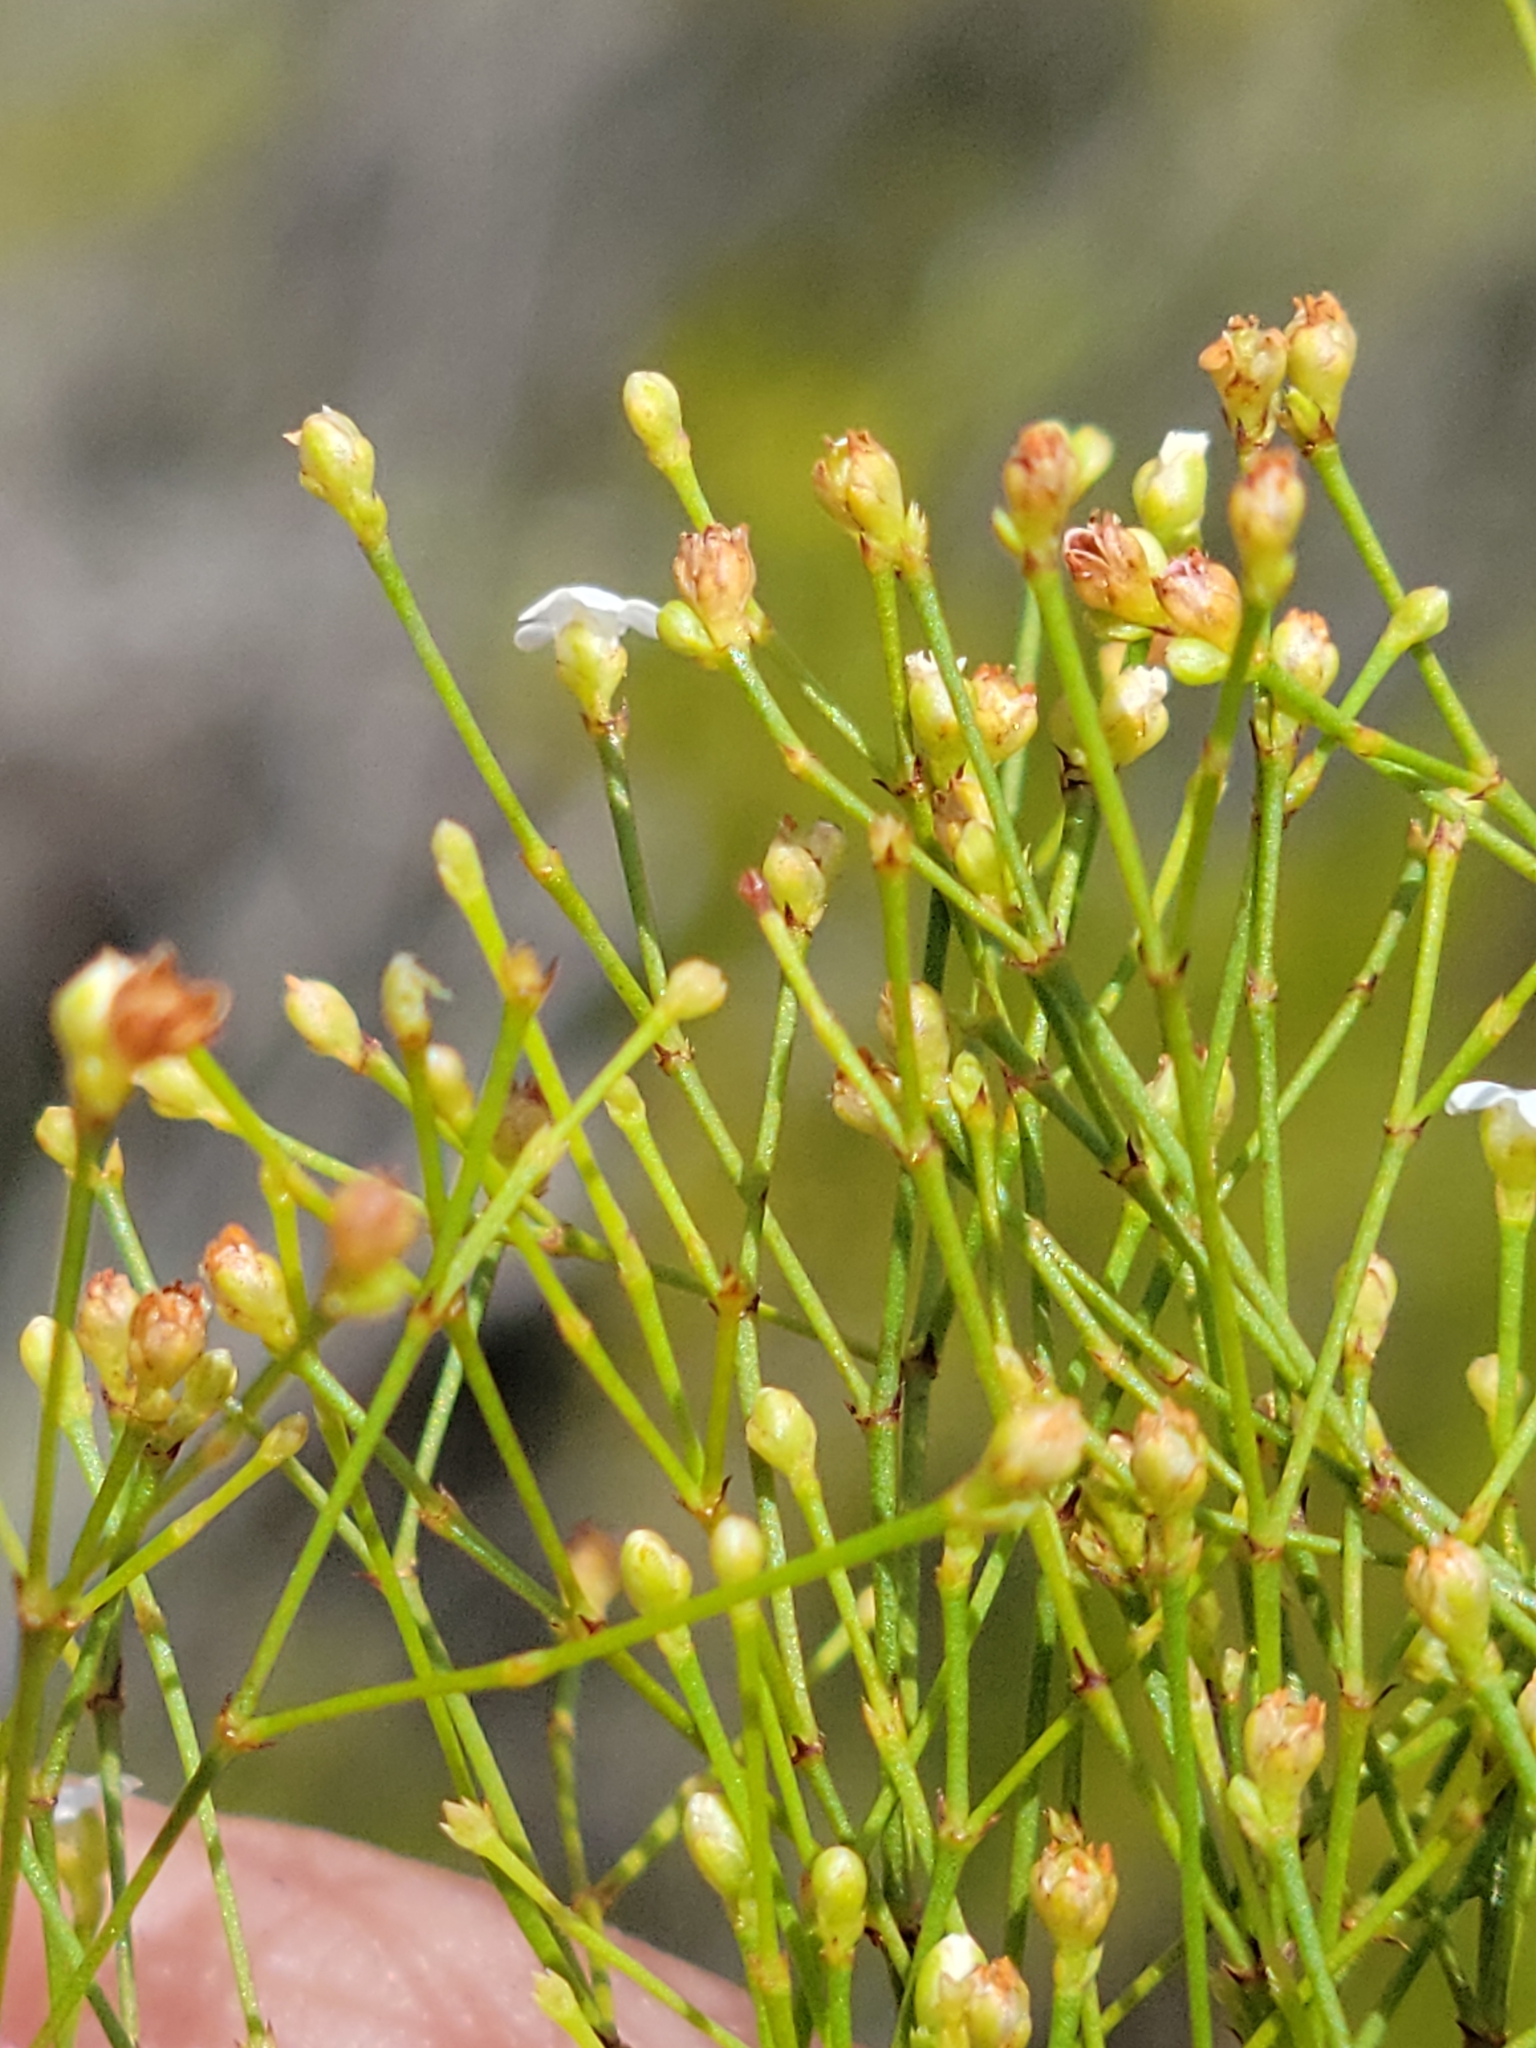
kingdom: Plantae
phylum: Tracheophyta
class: Magnoliopsida
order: Caryophyllales
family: Caryophyllaceae
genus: Stipulicida
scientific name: Stipulicida setacea
